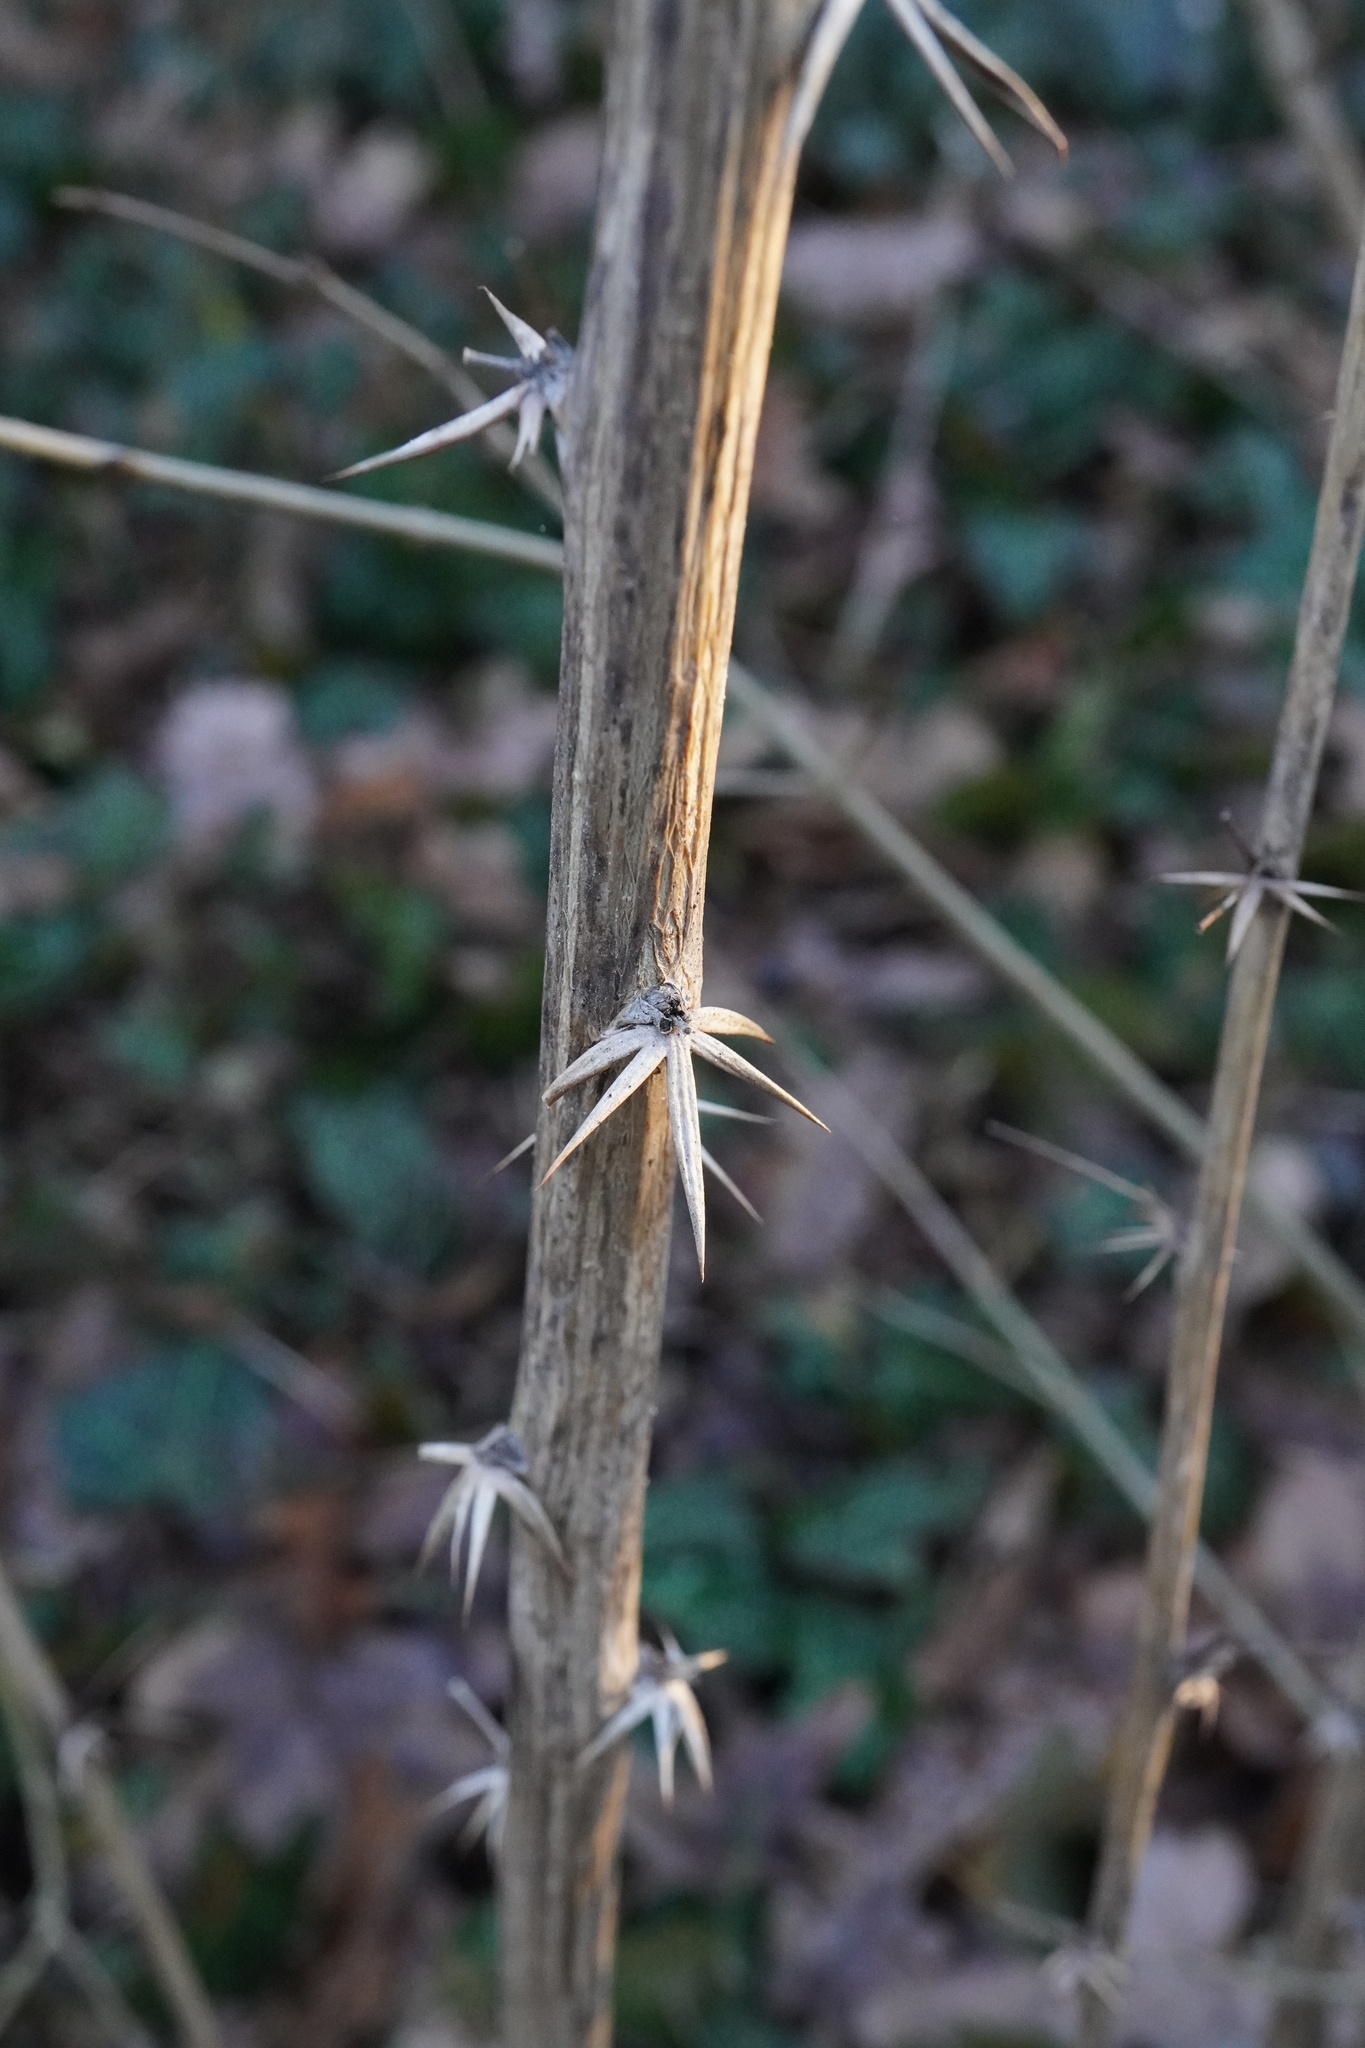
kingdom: Plantae
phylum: Tracheophyta
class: Magnoliopsida
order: Ranunculales
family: Berberidaceae
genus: Berberis
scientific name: Berberis vulgaris
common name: Barberry
